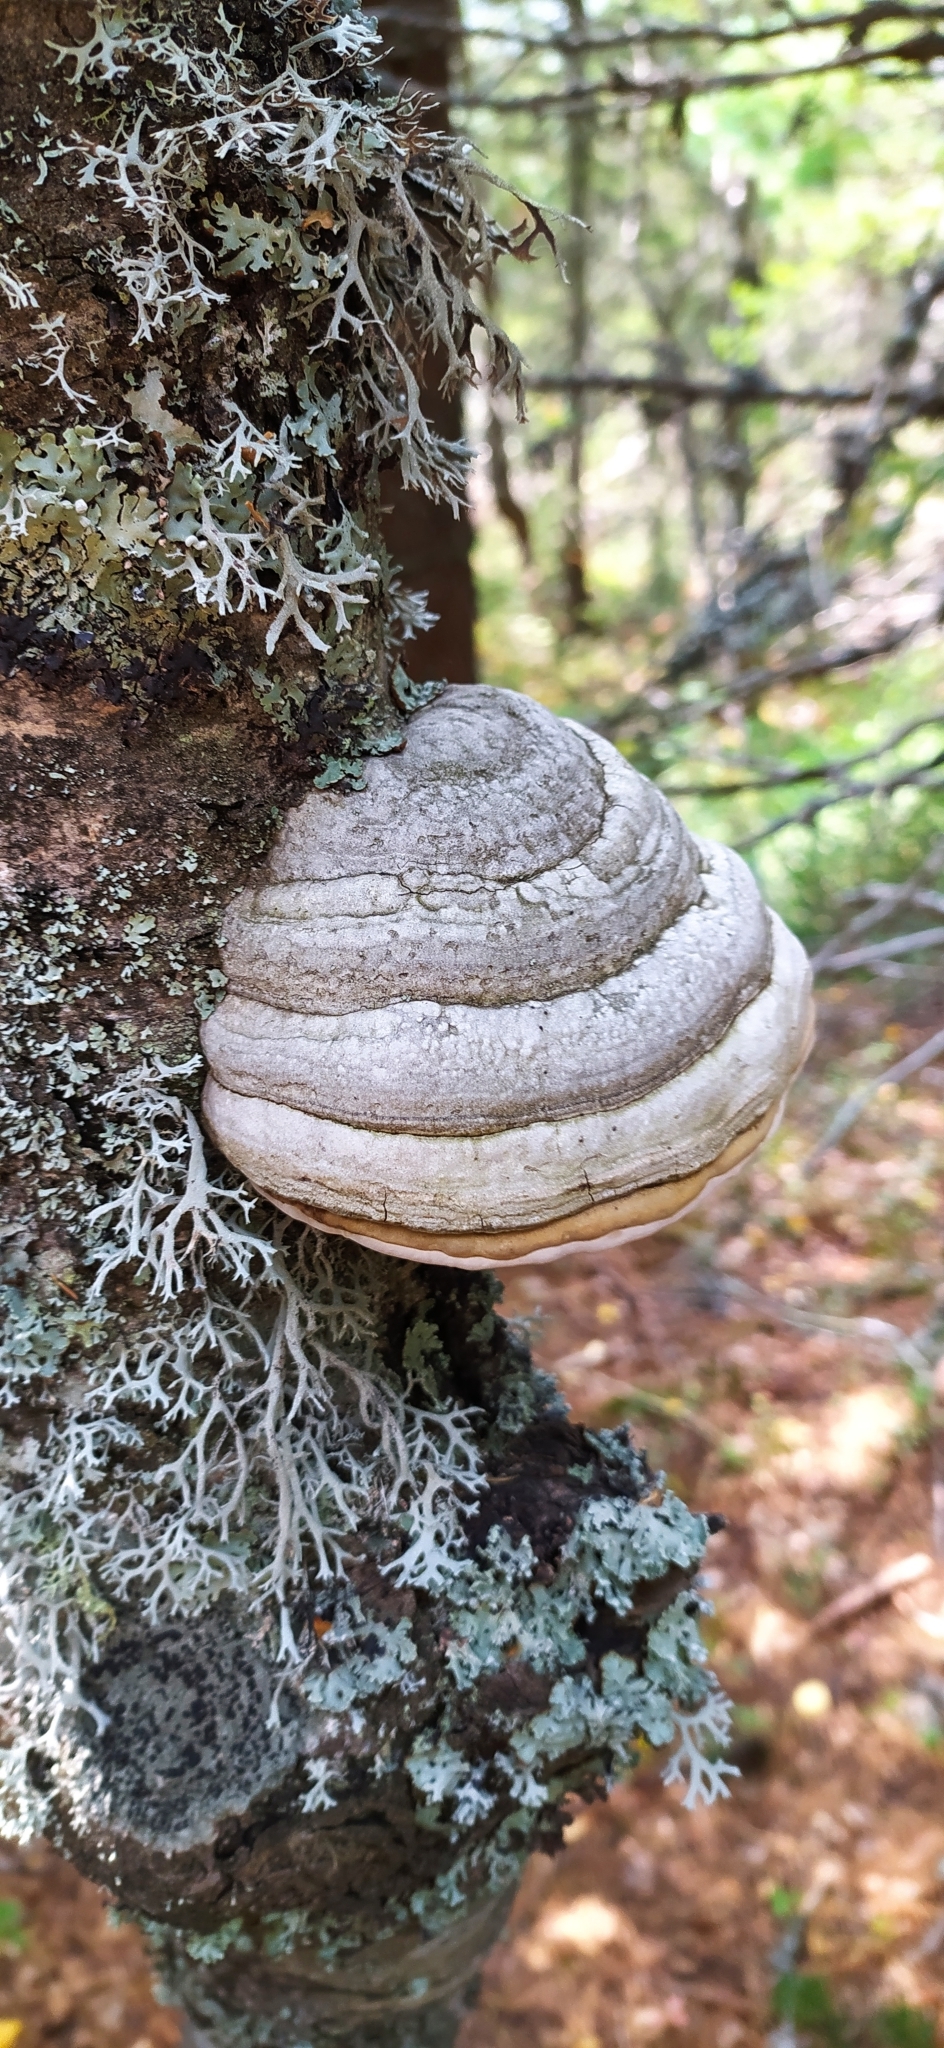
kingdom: Fungi
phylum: Basidiomycota
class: Agaricomycetes
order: Polyporales
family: Polyporaceae
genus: Fomes
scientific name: Fomes fomentarius
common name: Hoof fungus
